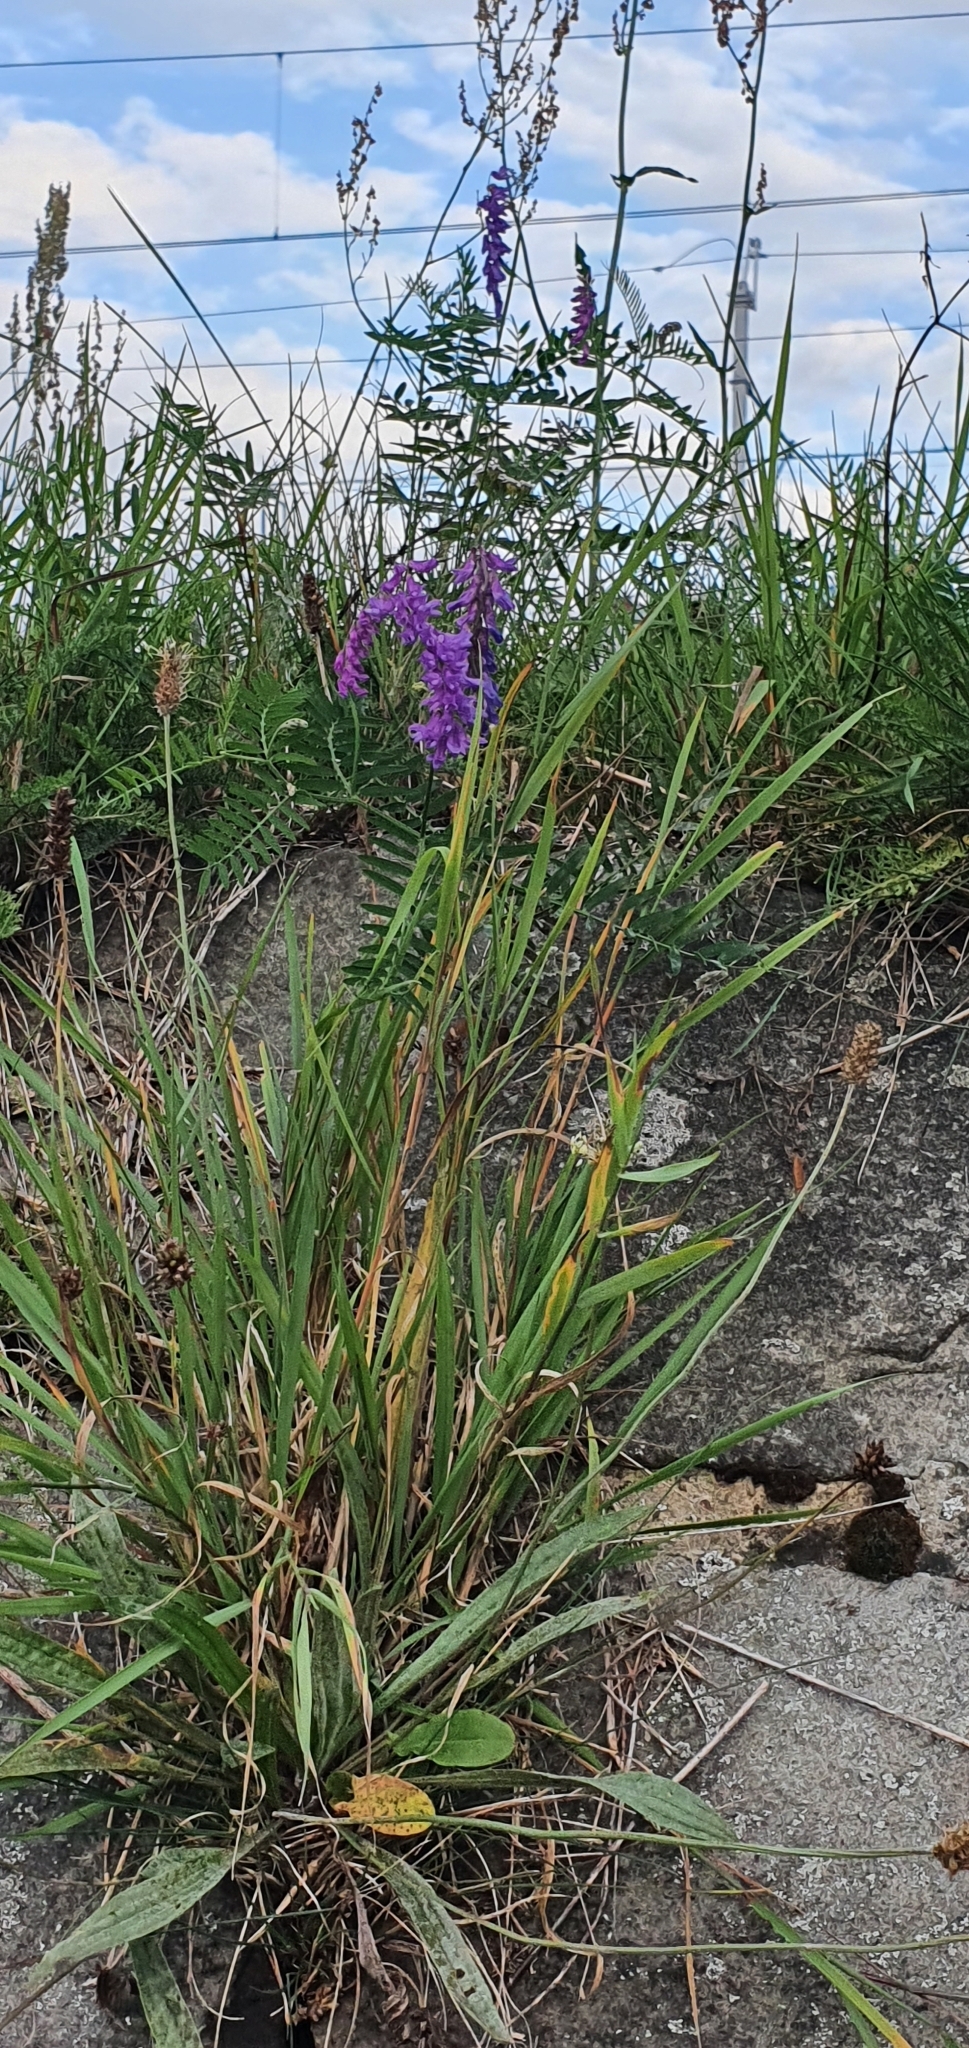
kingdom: Plantae
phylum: Tracheophyta
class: Magnoliopsida
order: Fabales
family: Fabaceae
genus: Vicia
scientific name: Vicia cracca
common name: Bird vetch
